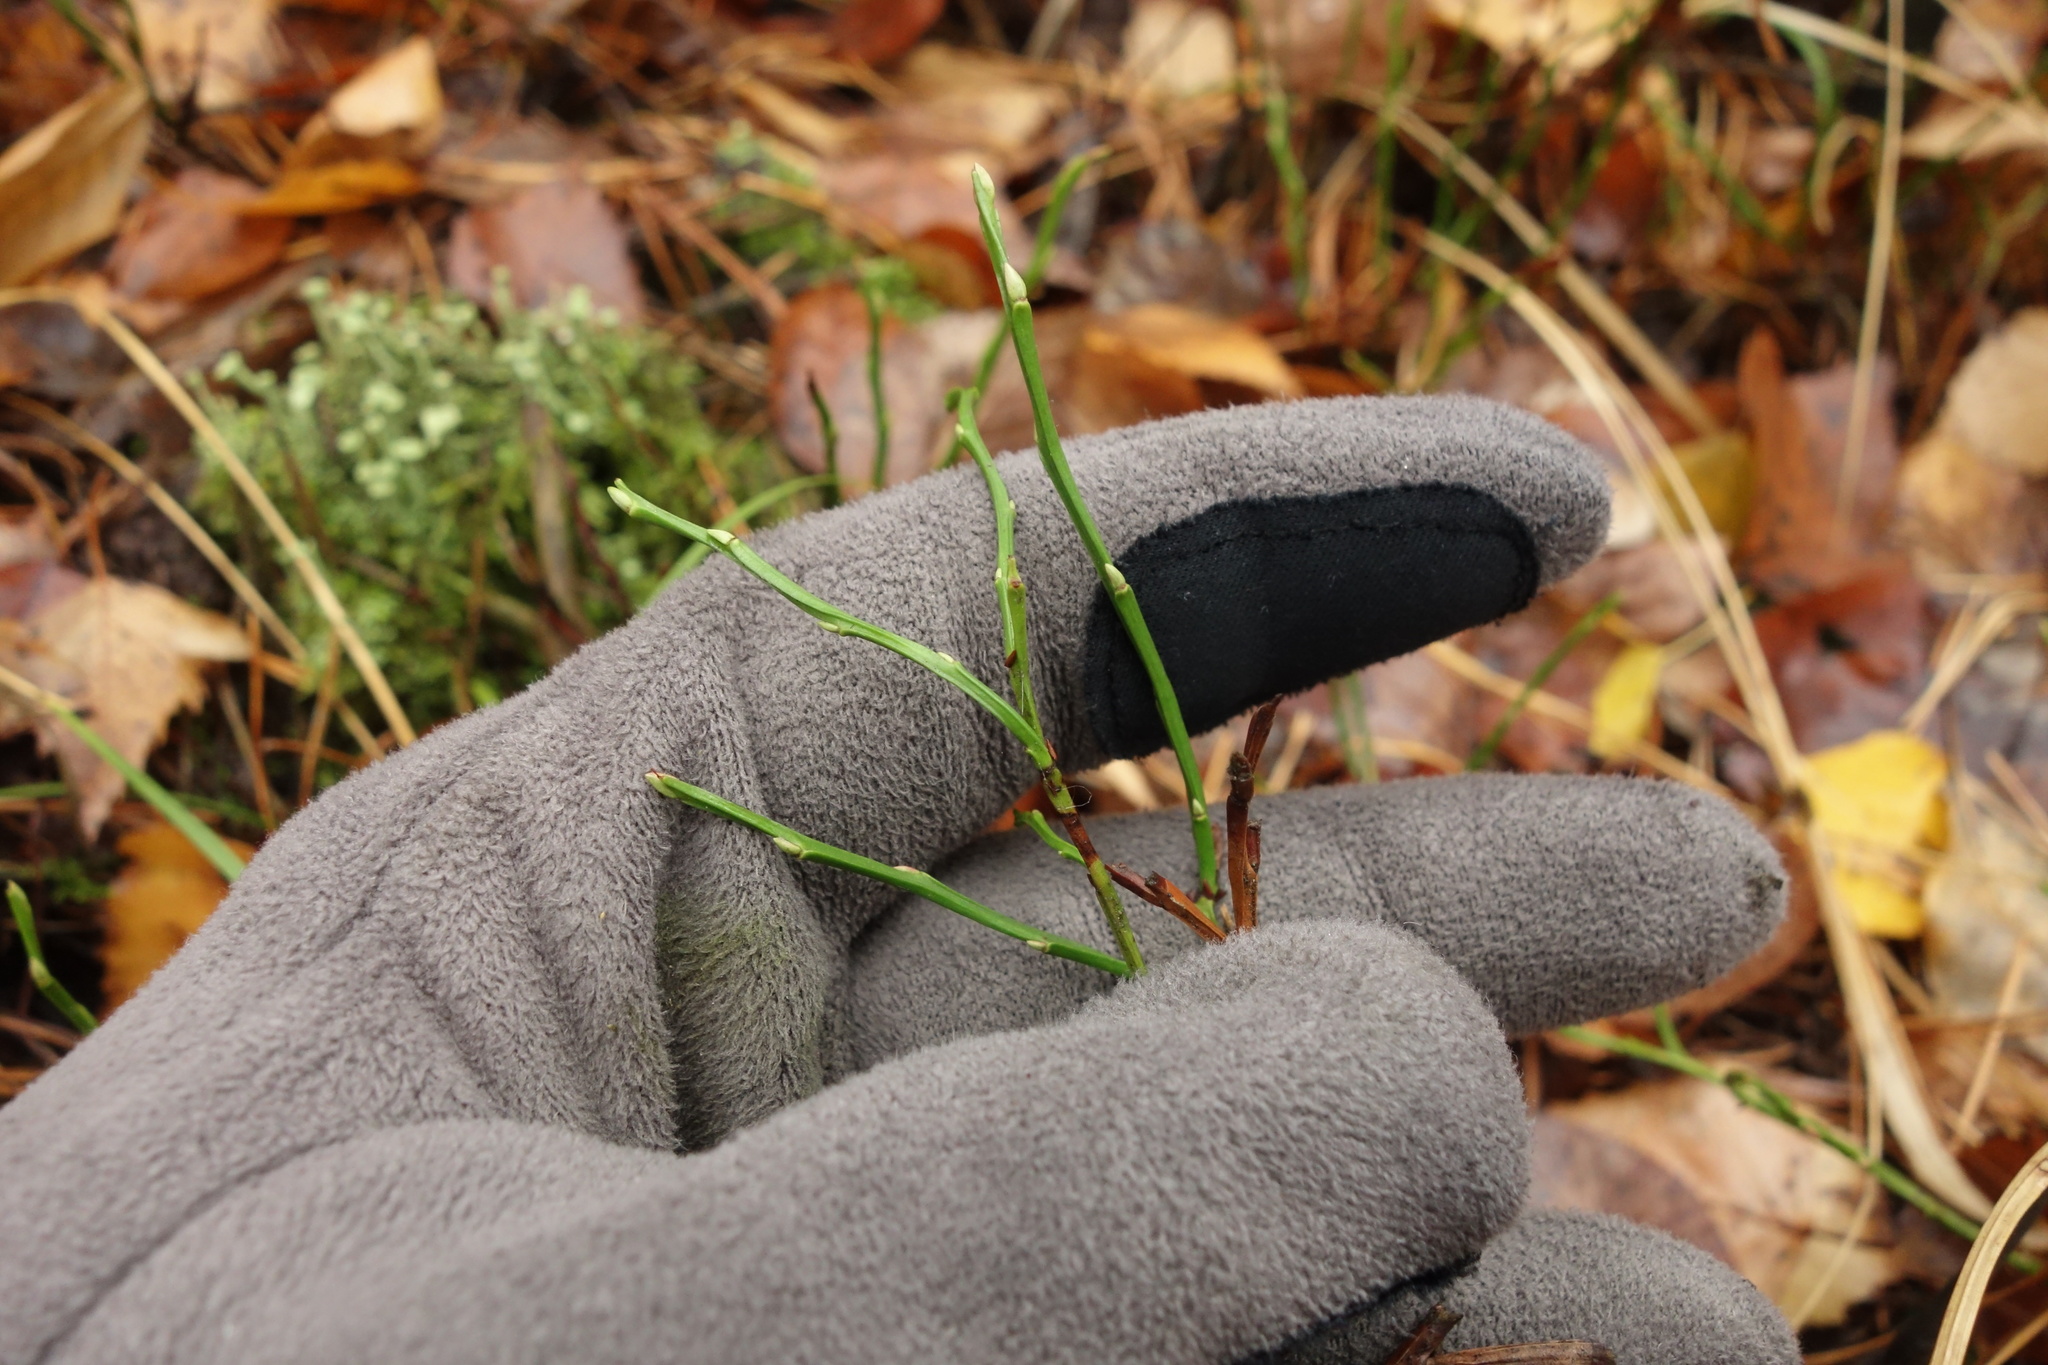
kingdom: Plantae
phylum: Tracheophyta
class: Magnoliopsida
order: Ericales
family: Ericaceae
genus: Vaccinium
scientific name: Vaccinium myrtillus
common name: Bilberry
